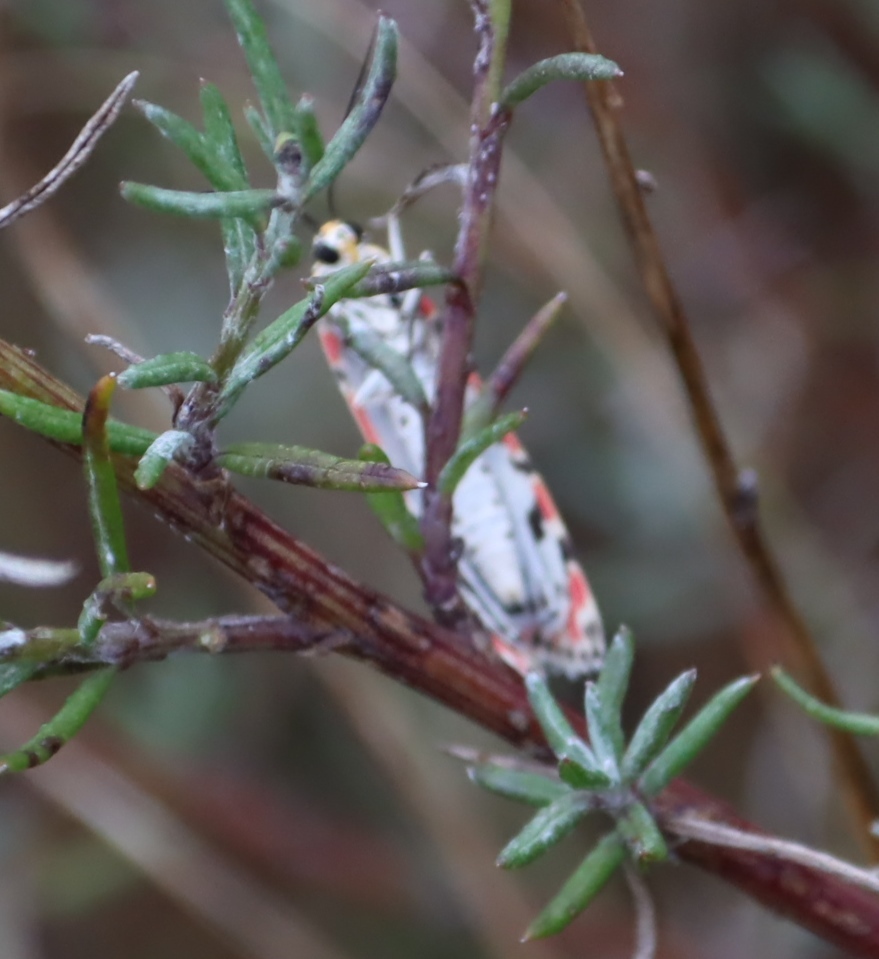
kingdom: Animalia
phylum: Arthropoda
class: Insecta
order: Lepidoptera
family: Erebidae
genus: Utetheisa
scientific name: Utetheisa pulchella
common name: Crimson speckled
